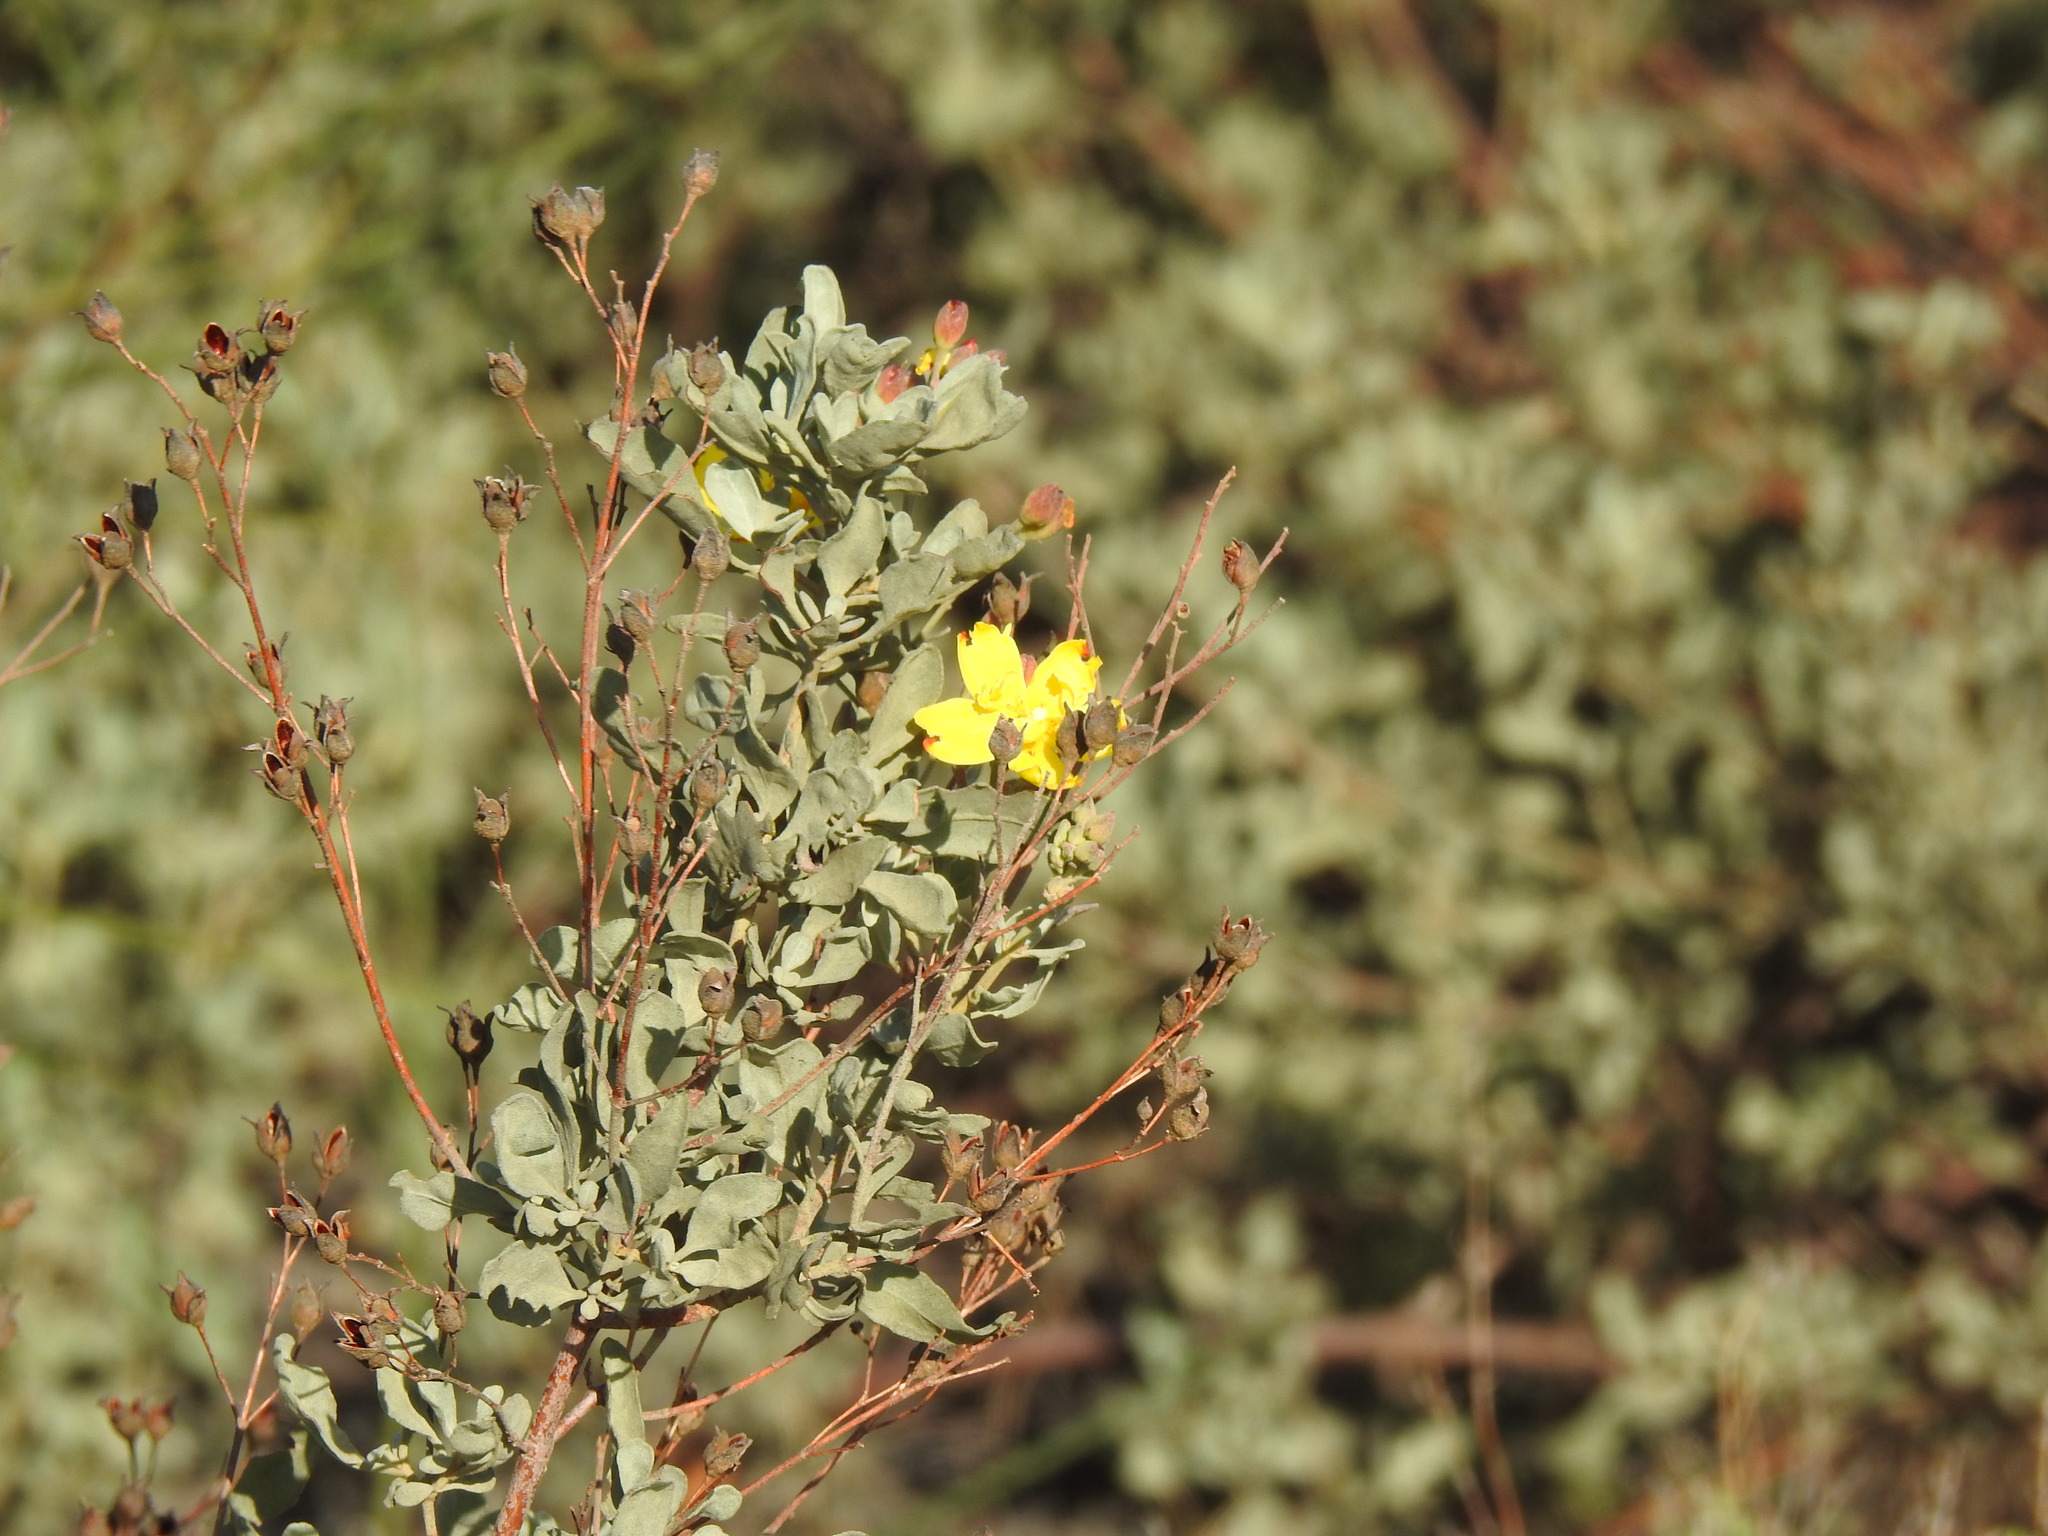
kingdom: Plantae
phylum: Tracheophyta
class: Magnoliopsida
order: Malvales
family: Cistaceae
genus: Halimium
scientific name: Halimium halimifolium
